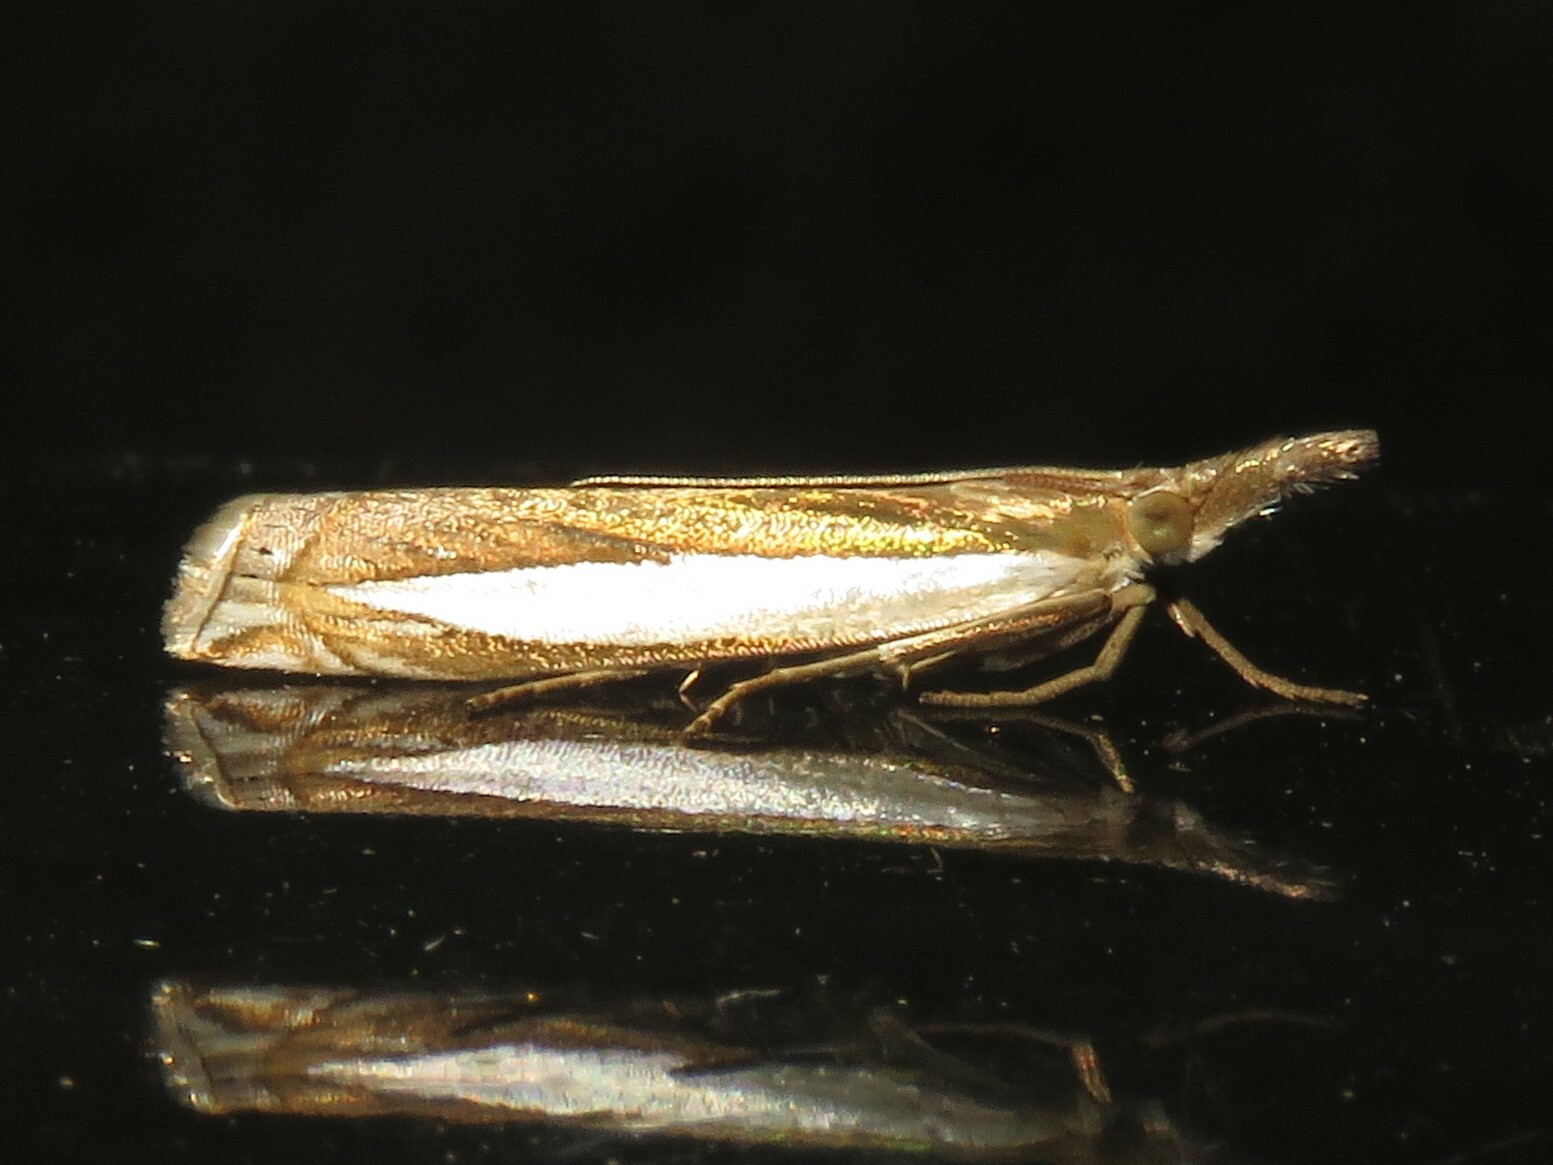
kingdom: Animalia
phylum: Arthropoda
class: Insecta
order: Lepidoptera
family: Crambidae
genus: Crambus
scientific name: Crambus leachellus
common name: Leach's grass-veneer
